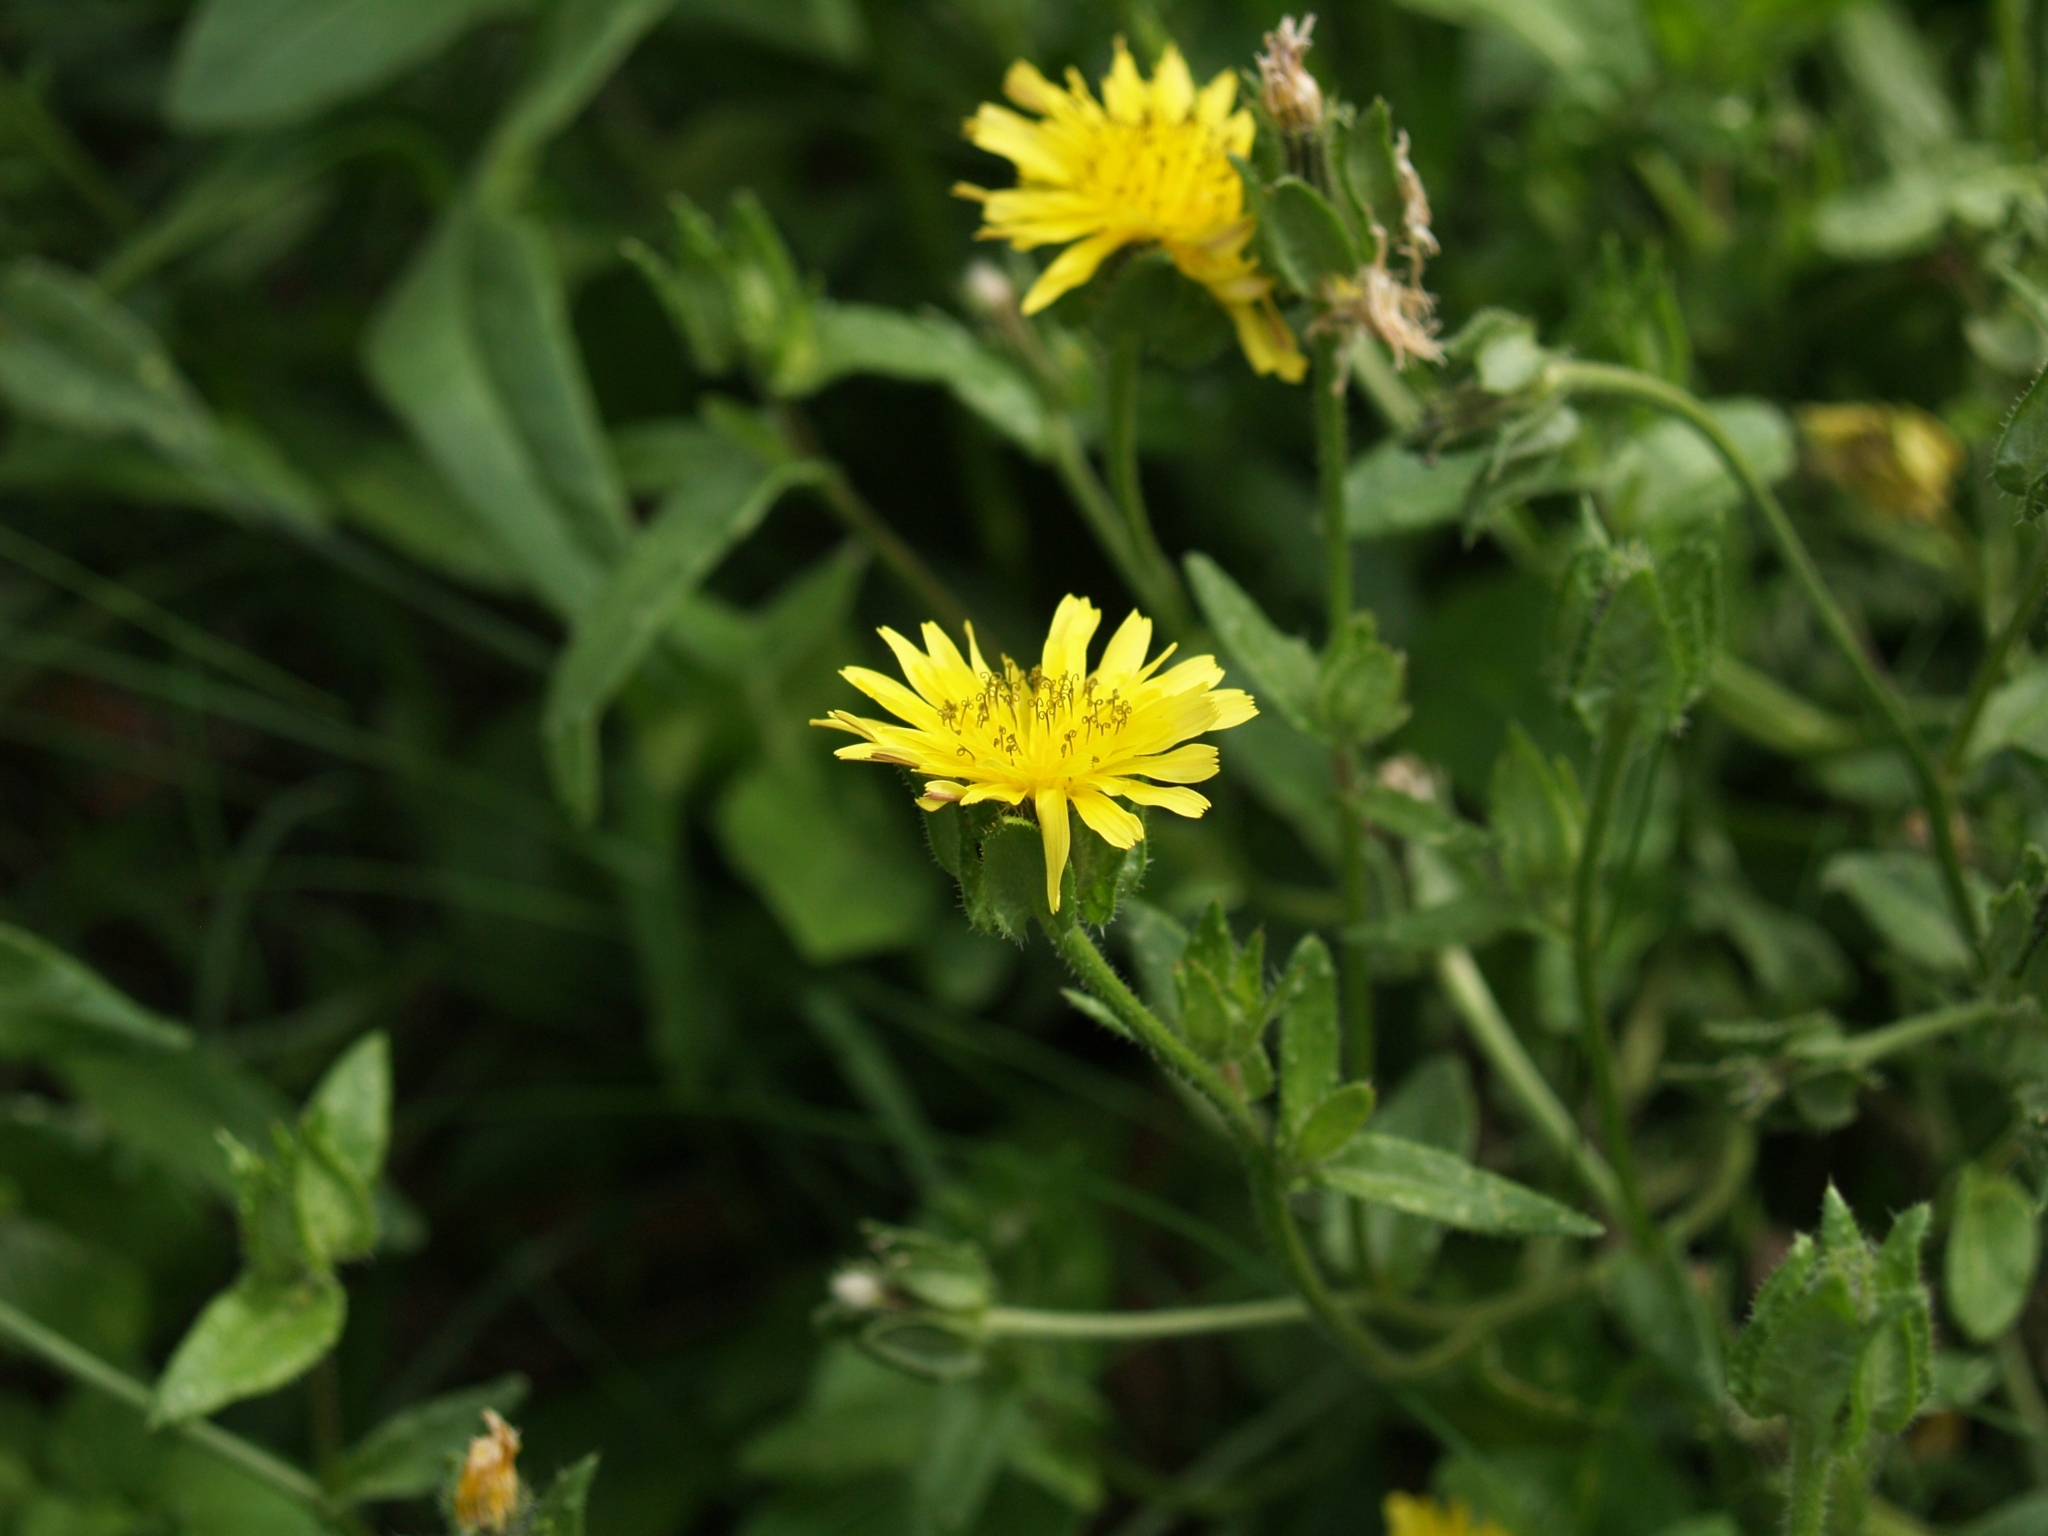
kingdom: Plantae
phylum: Tracheophyta
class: Magnoliopsida
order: Asterales
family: Asteraceae
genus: Helminthotheca
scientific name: Helminthotheca echioides
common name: Ox-tongue
